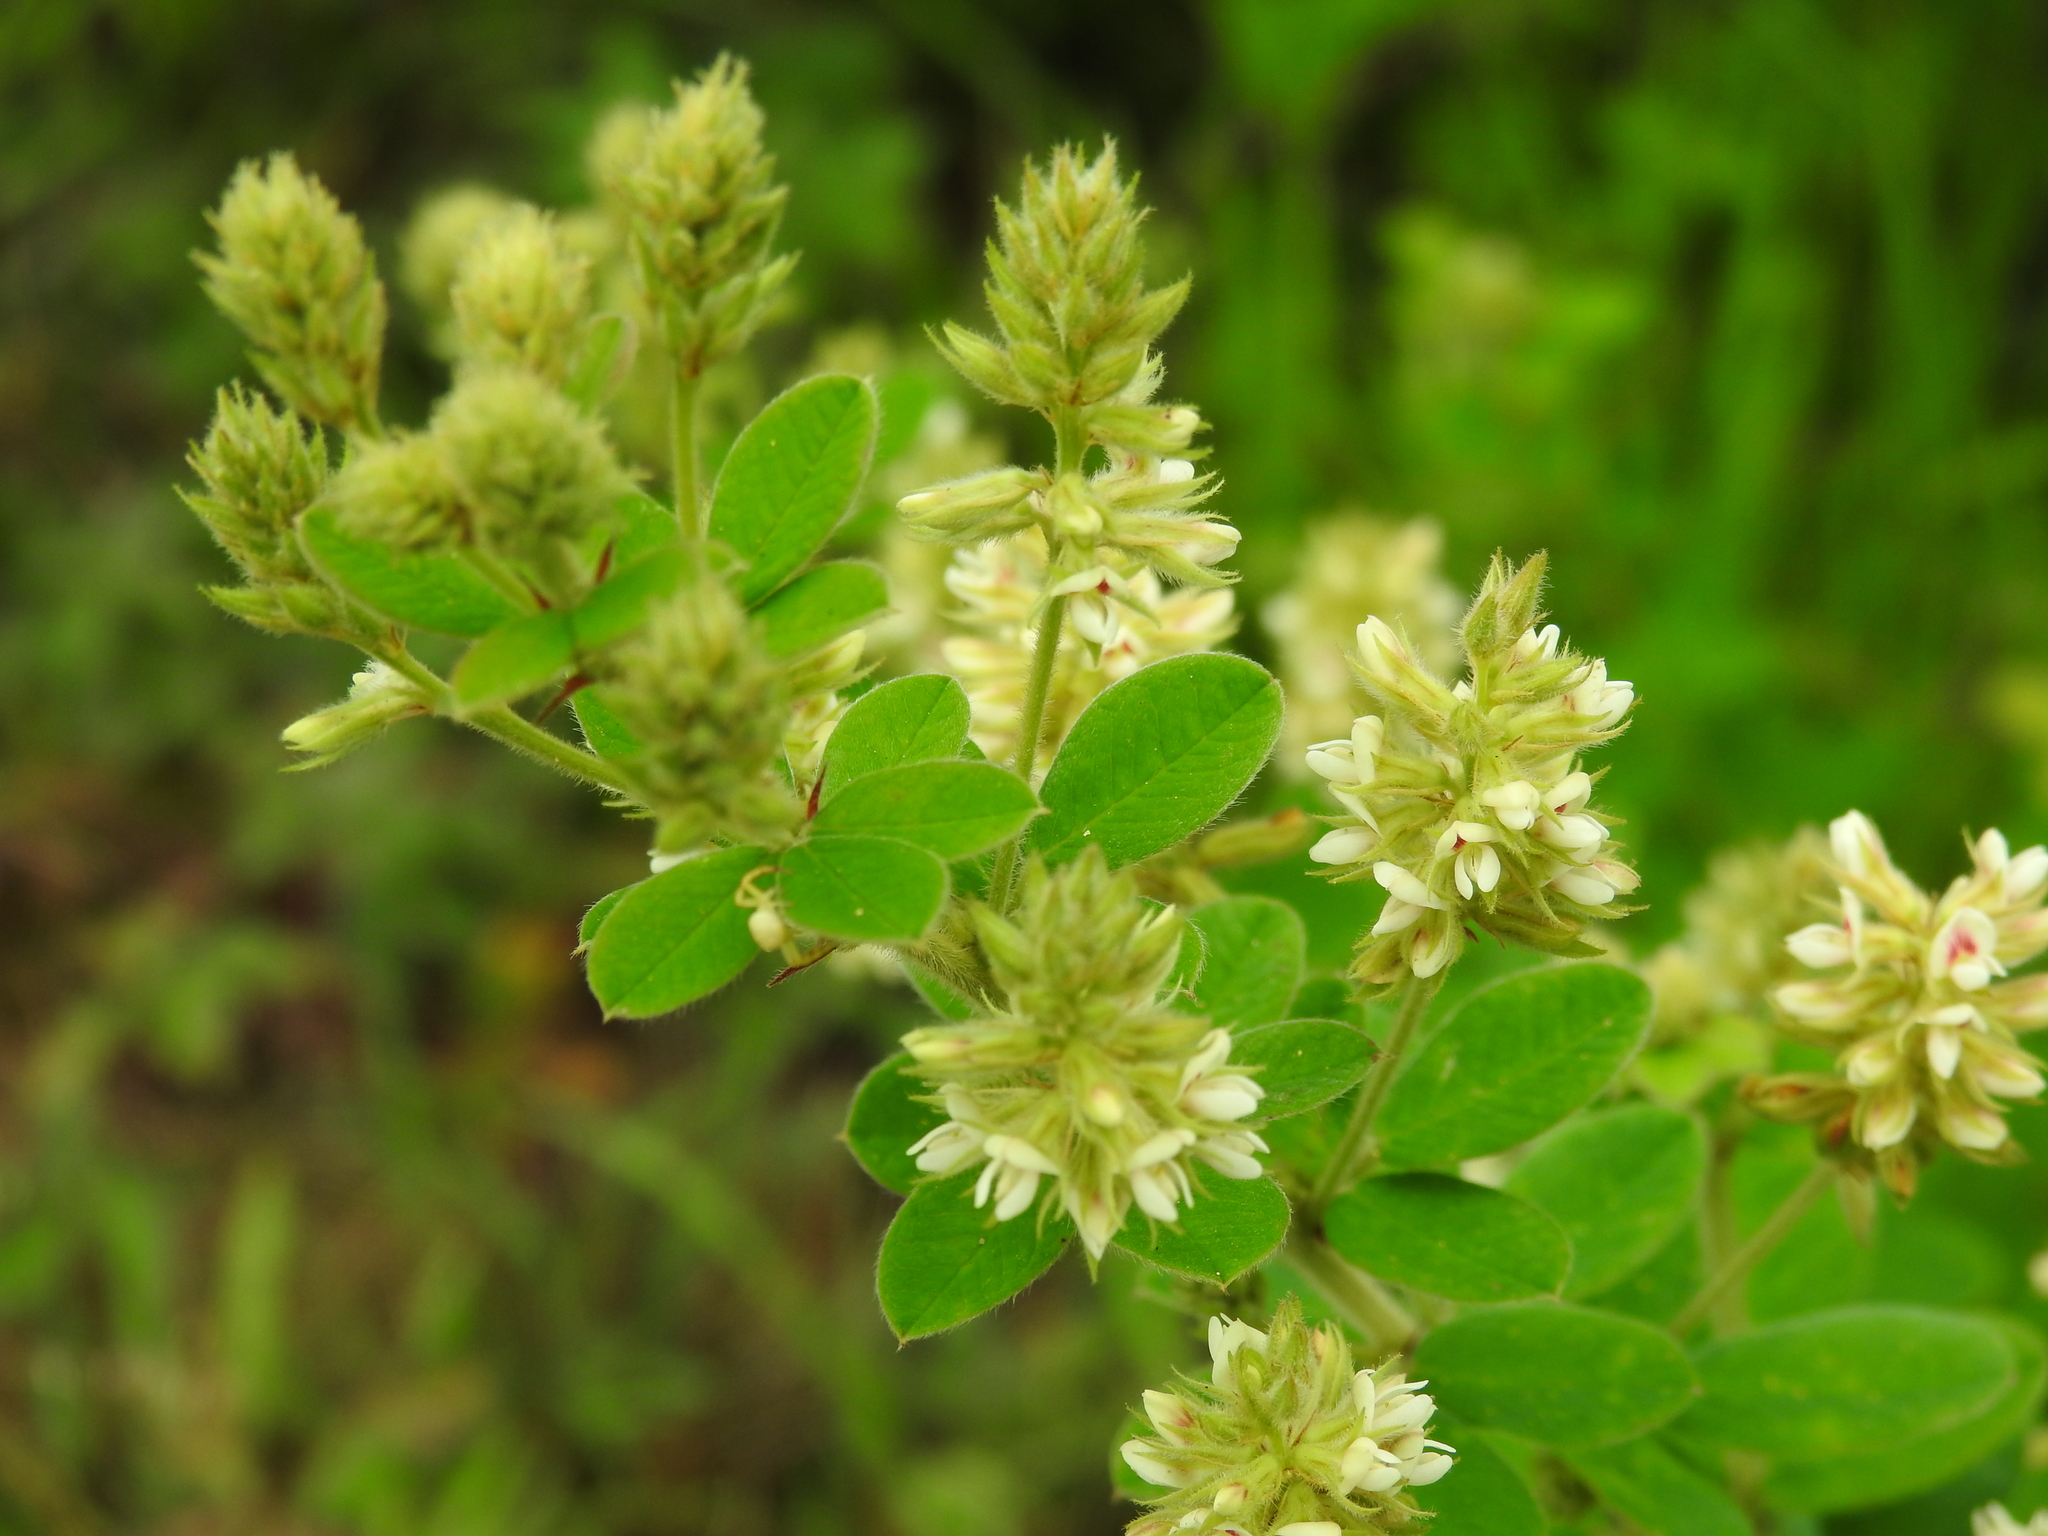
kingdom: Plantae
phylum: Tracheophyta
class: Magnoliopsida
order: Fabales
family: Fabaceae
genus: Lespedeza
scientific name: Lespedeza hirta
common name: Hairy lespedeza
